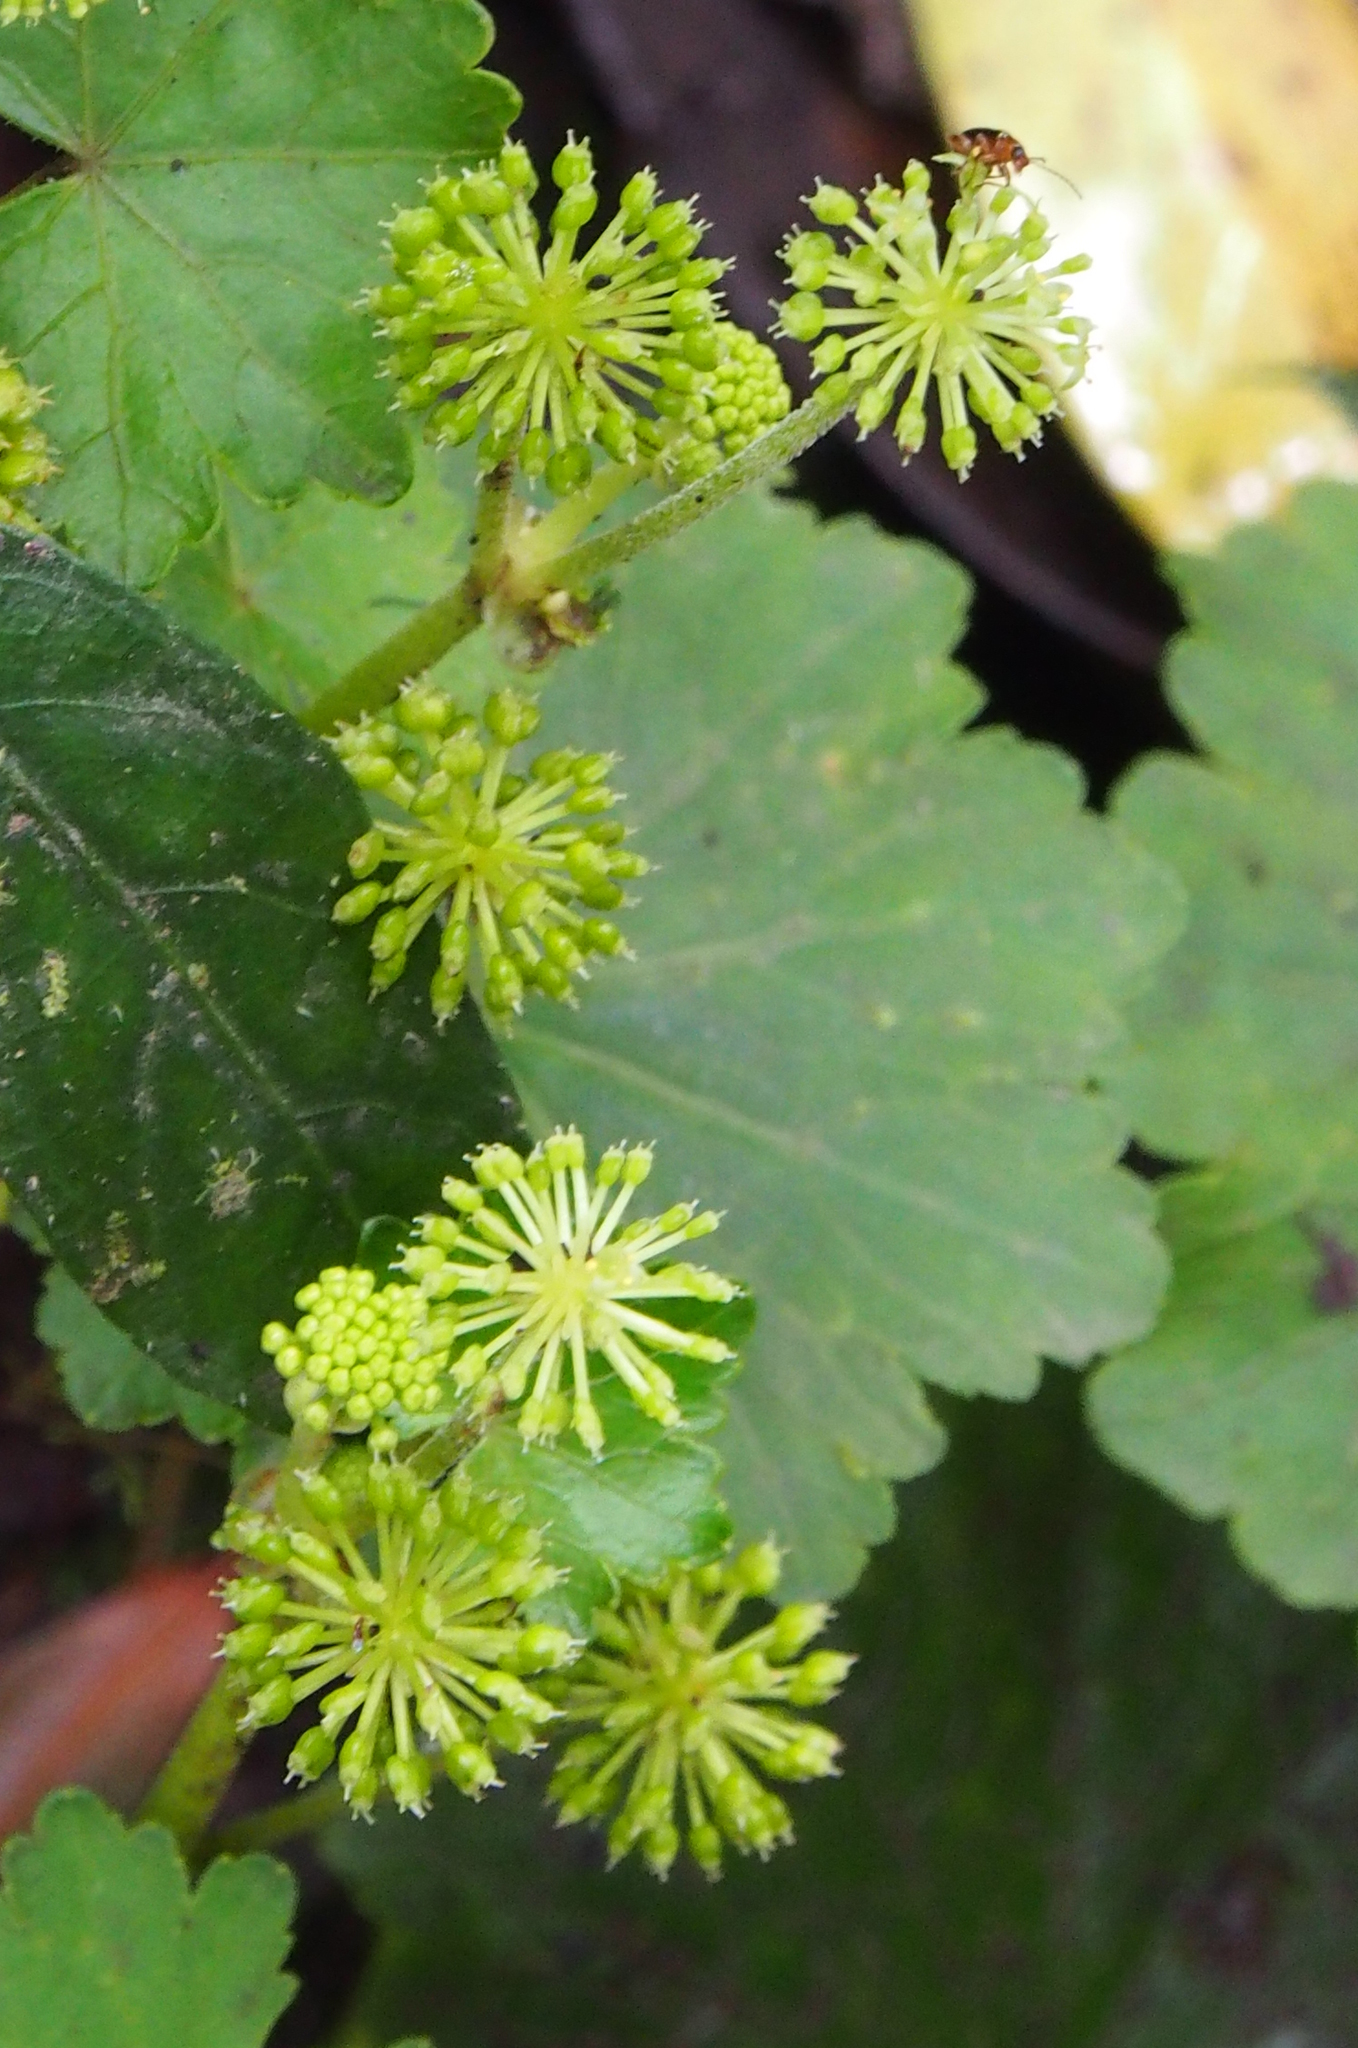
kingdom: Plantae
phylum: Tracheophyta
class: Magnoliopsida
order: Apiales
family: Araliaceae
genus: Hydrocotyle
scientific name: Hydrocotyle mexicana
